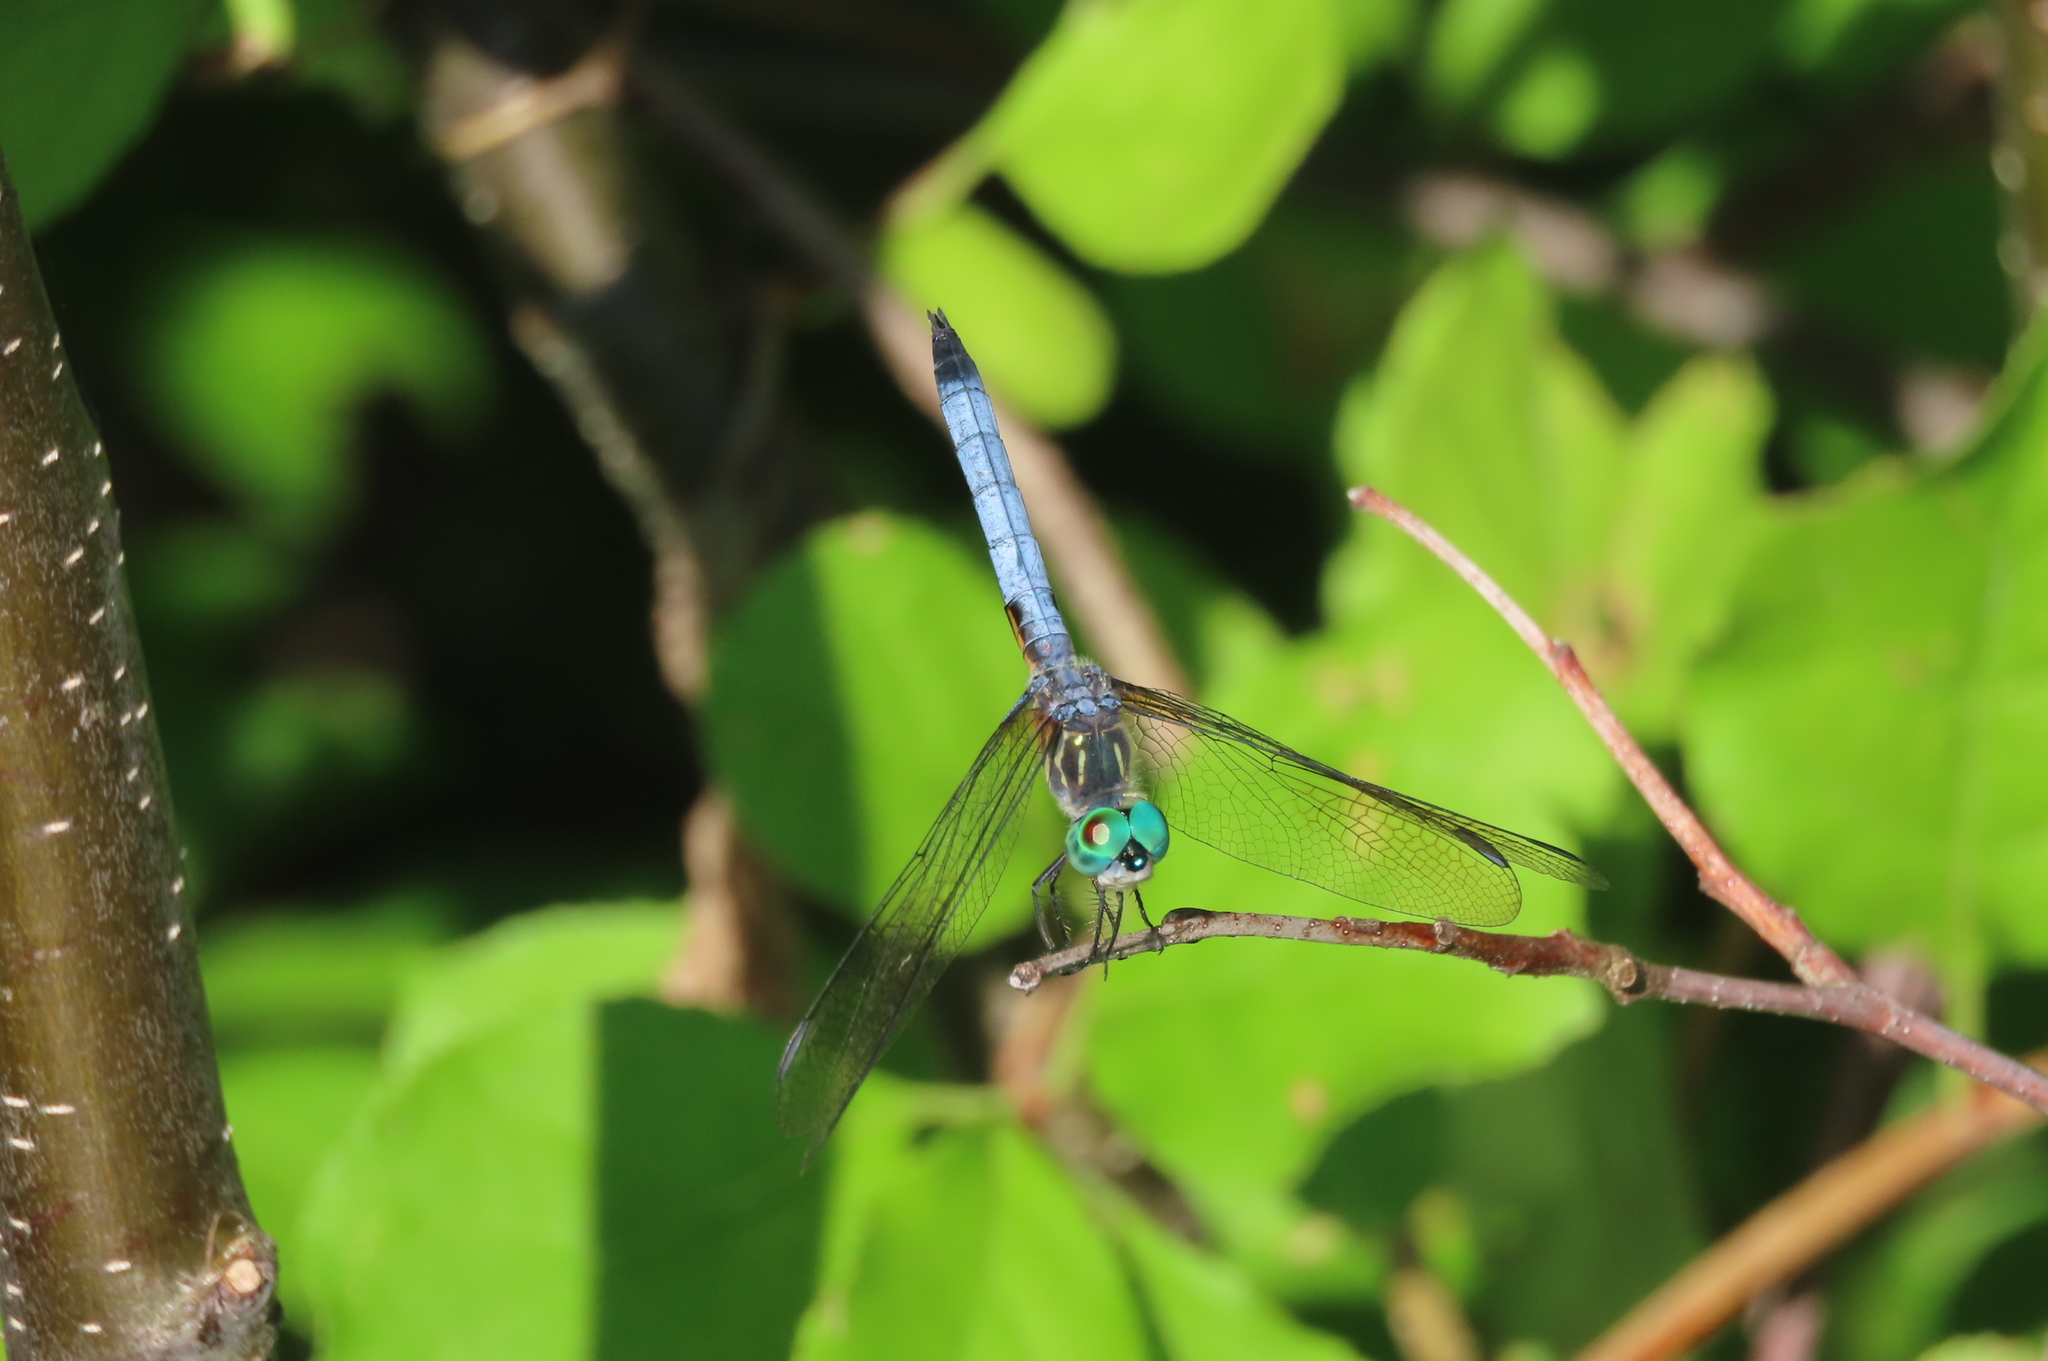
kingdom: Animalia
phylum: Arthropoda
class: Insecta
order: Odonata
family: Libellulidae
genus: Pachydiplax
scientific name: Pachydiplax longipennis
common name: Blue dasher
